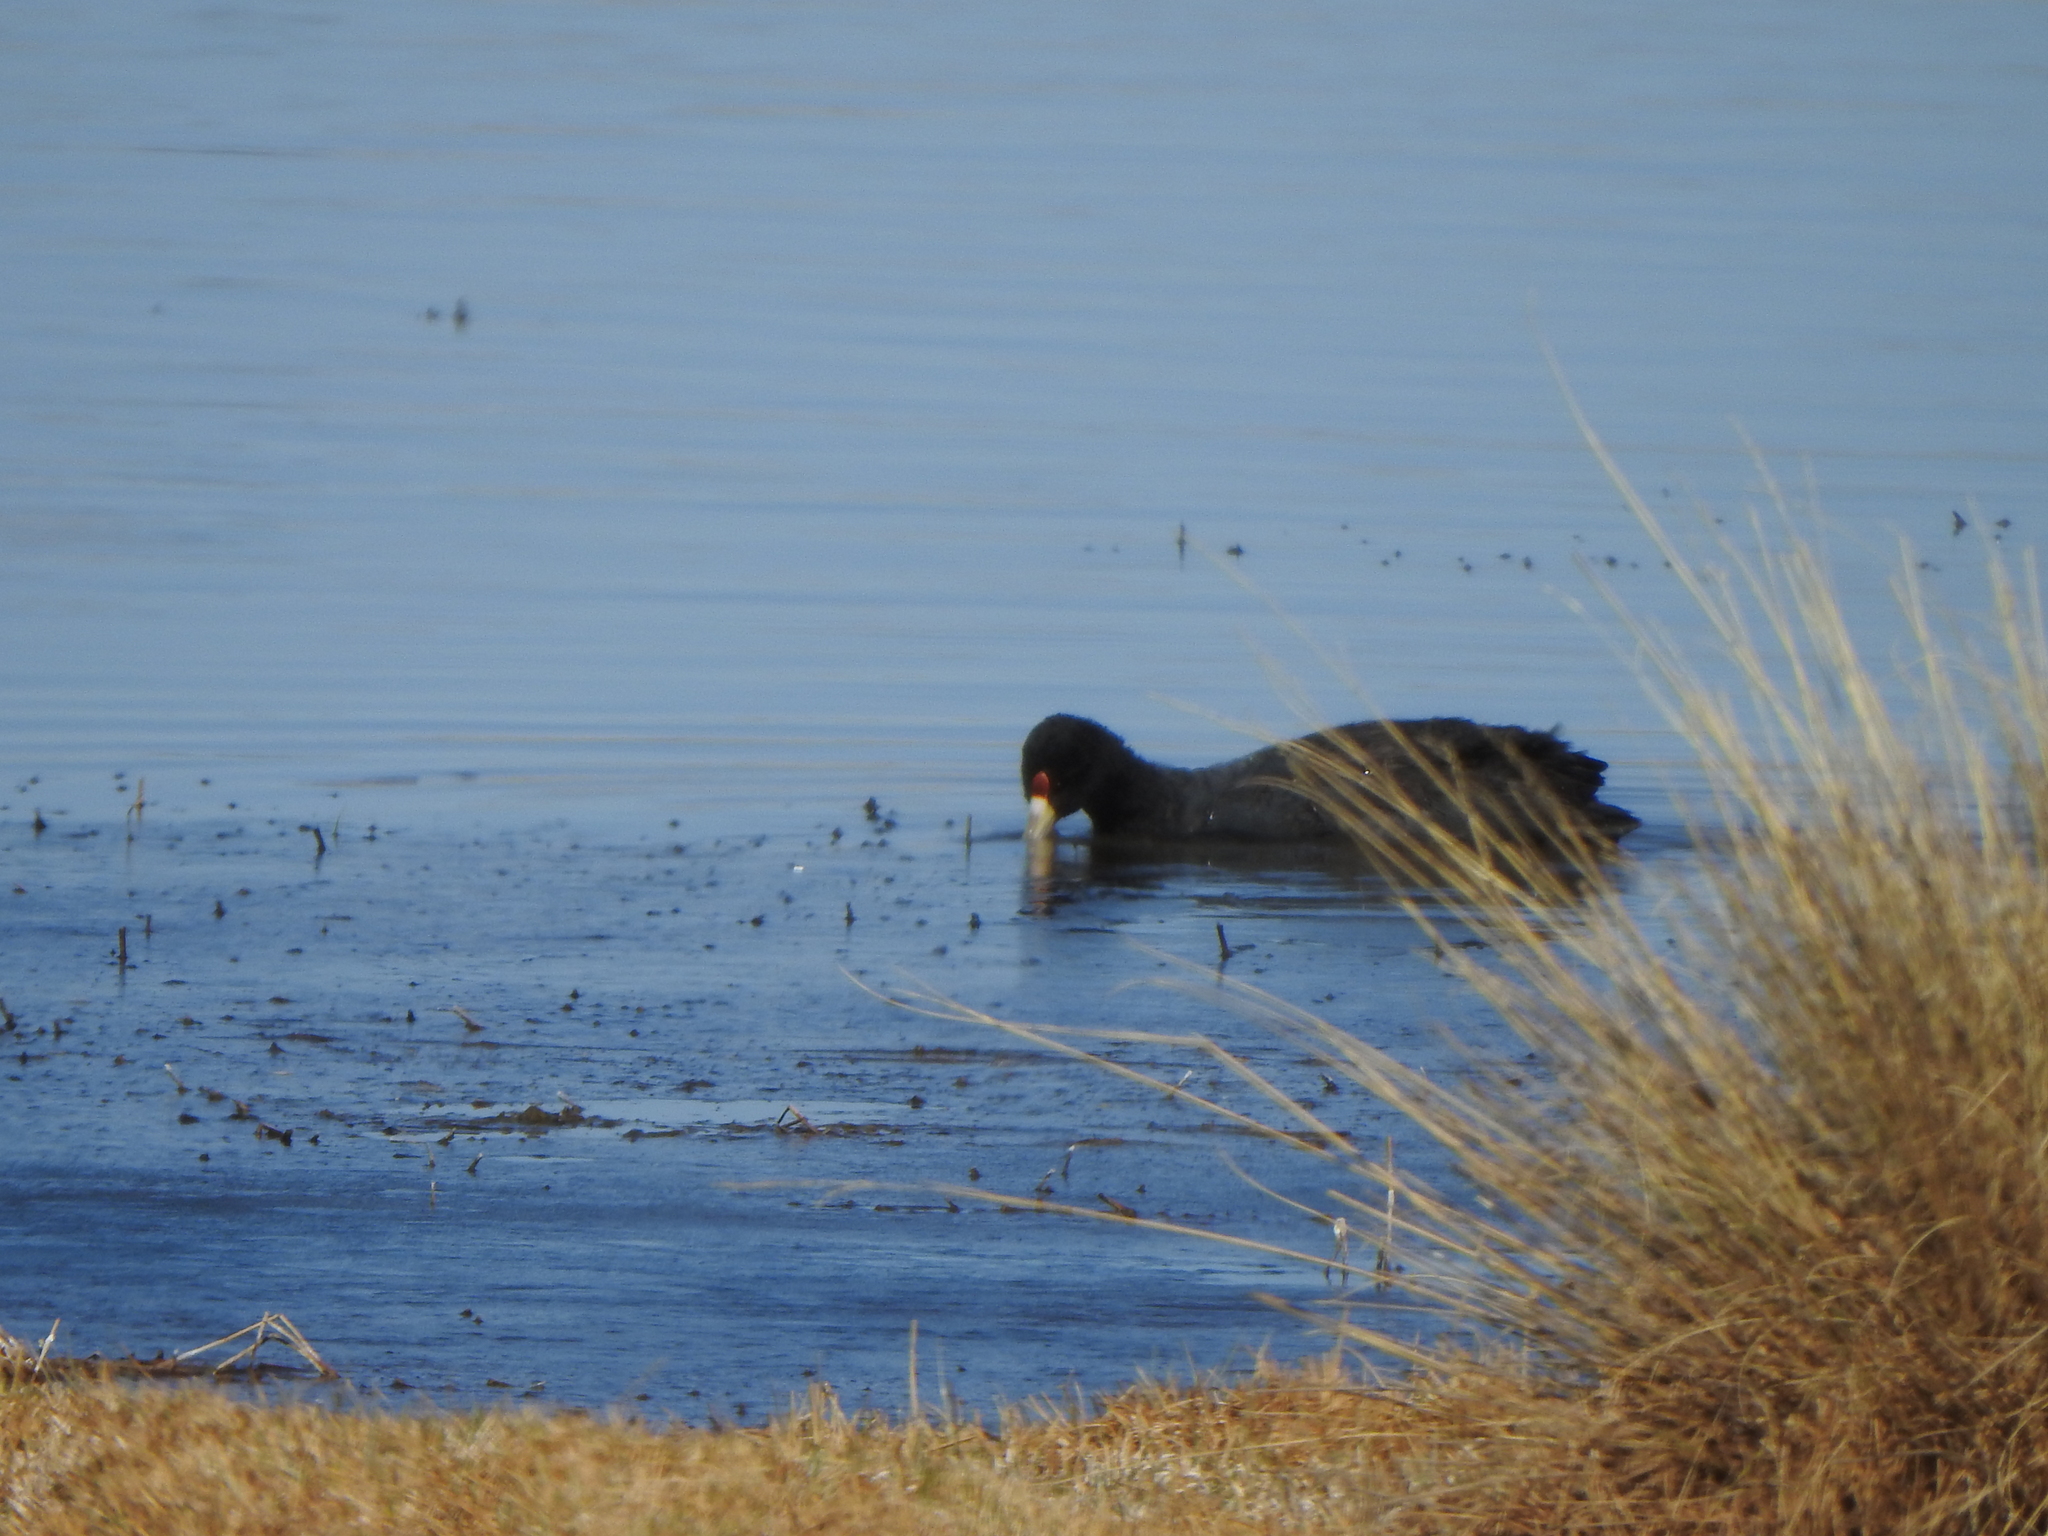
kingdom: Animalia
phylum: Chordata
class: Aves
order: Gruiformes
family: Rallidae
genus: Fulica
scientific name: Fulica ardesiaca
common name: Andean coot
